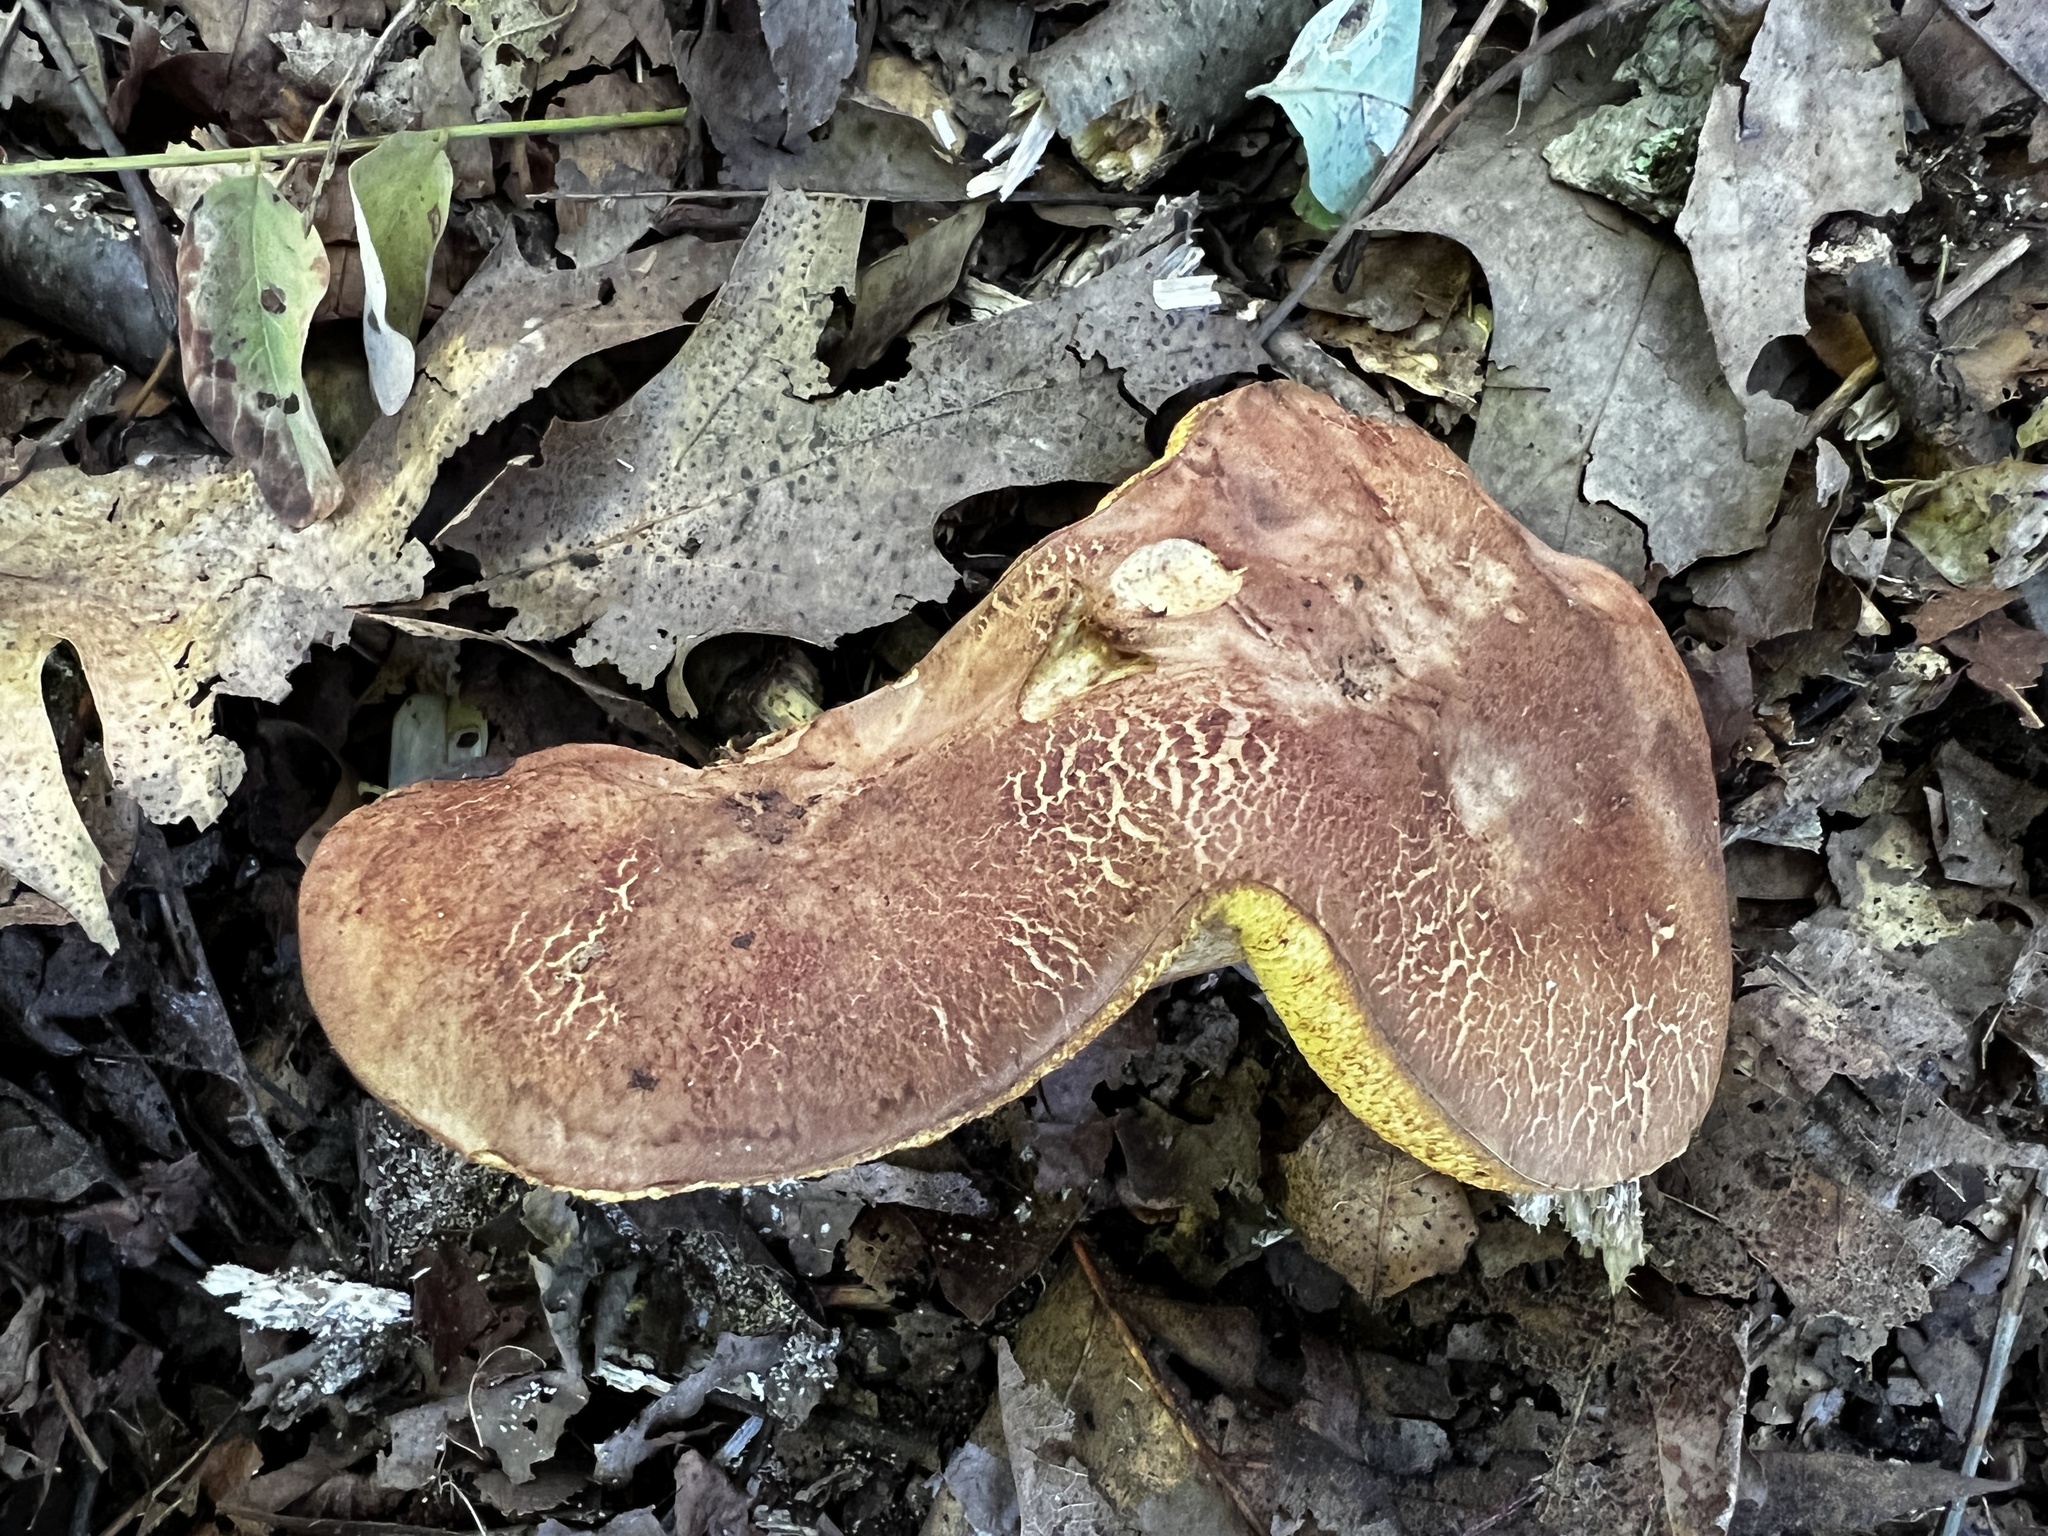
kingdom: Fungi
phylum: Basidiomycota
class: Agaricomycetes
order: Boletales
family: Boletaceae
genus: Aureoboletus
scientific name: Aureoboletus innixus
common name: Clustered brown bolete
